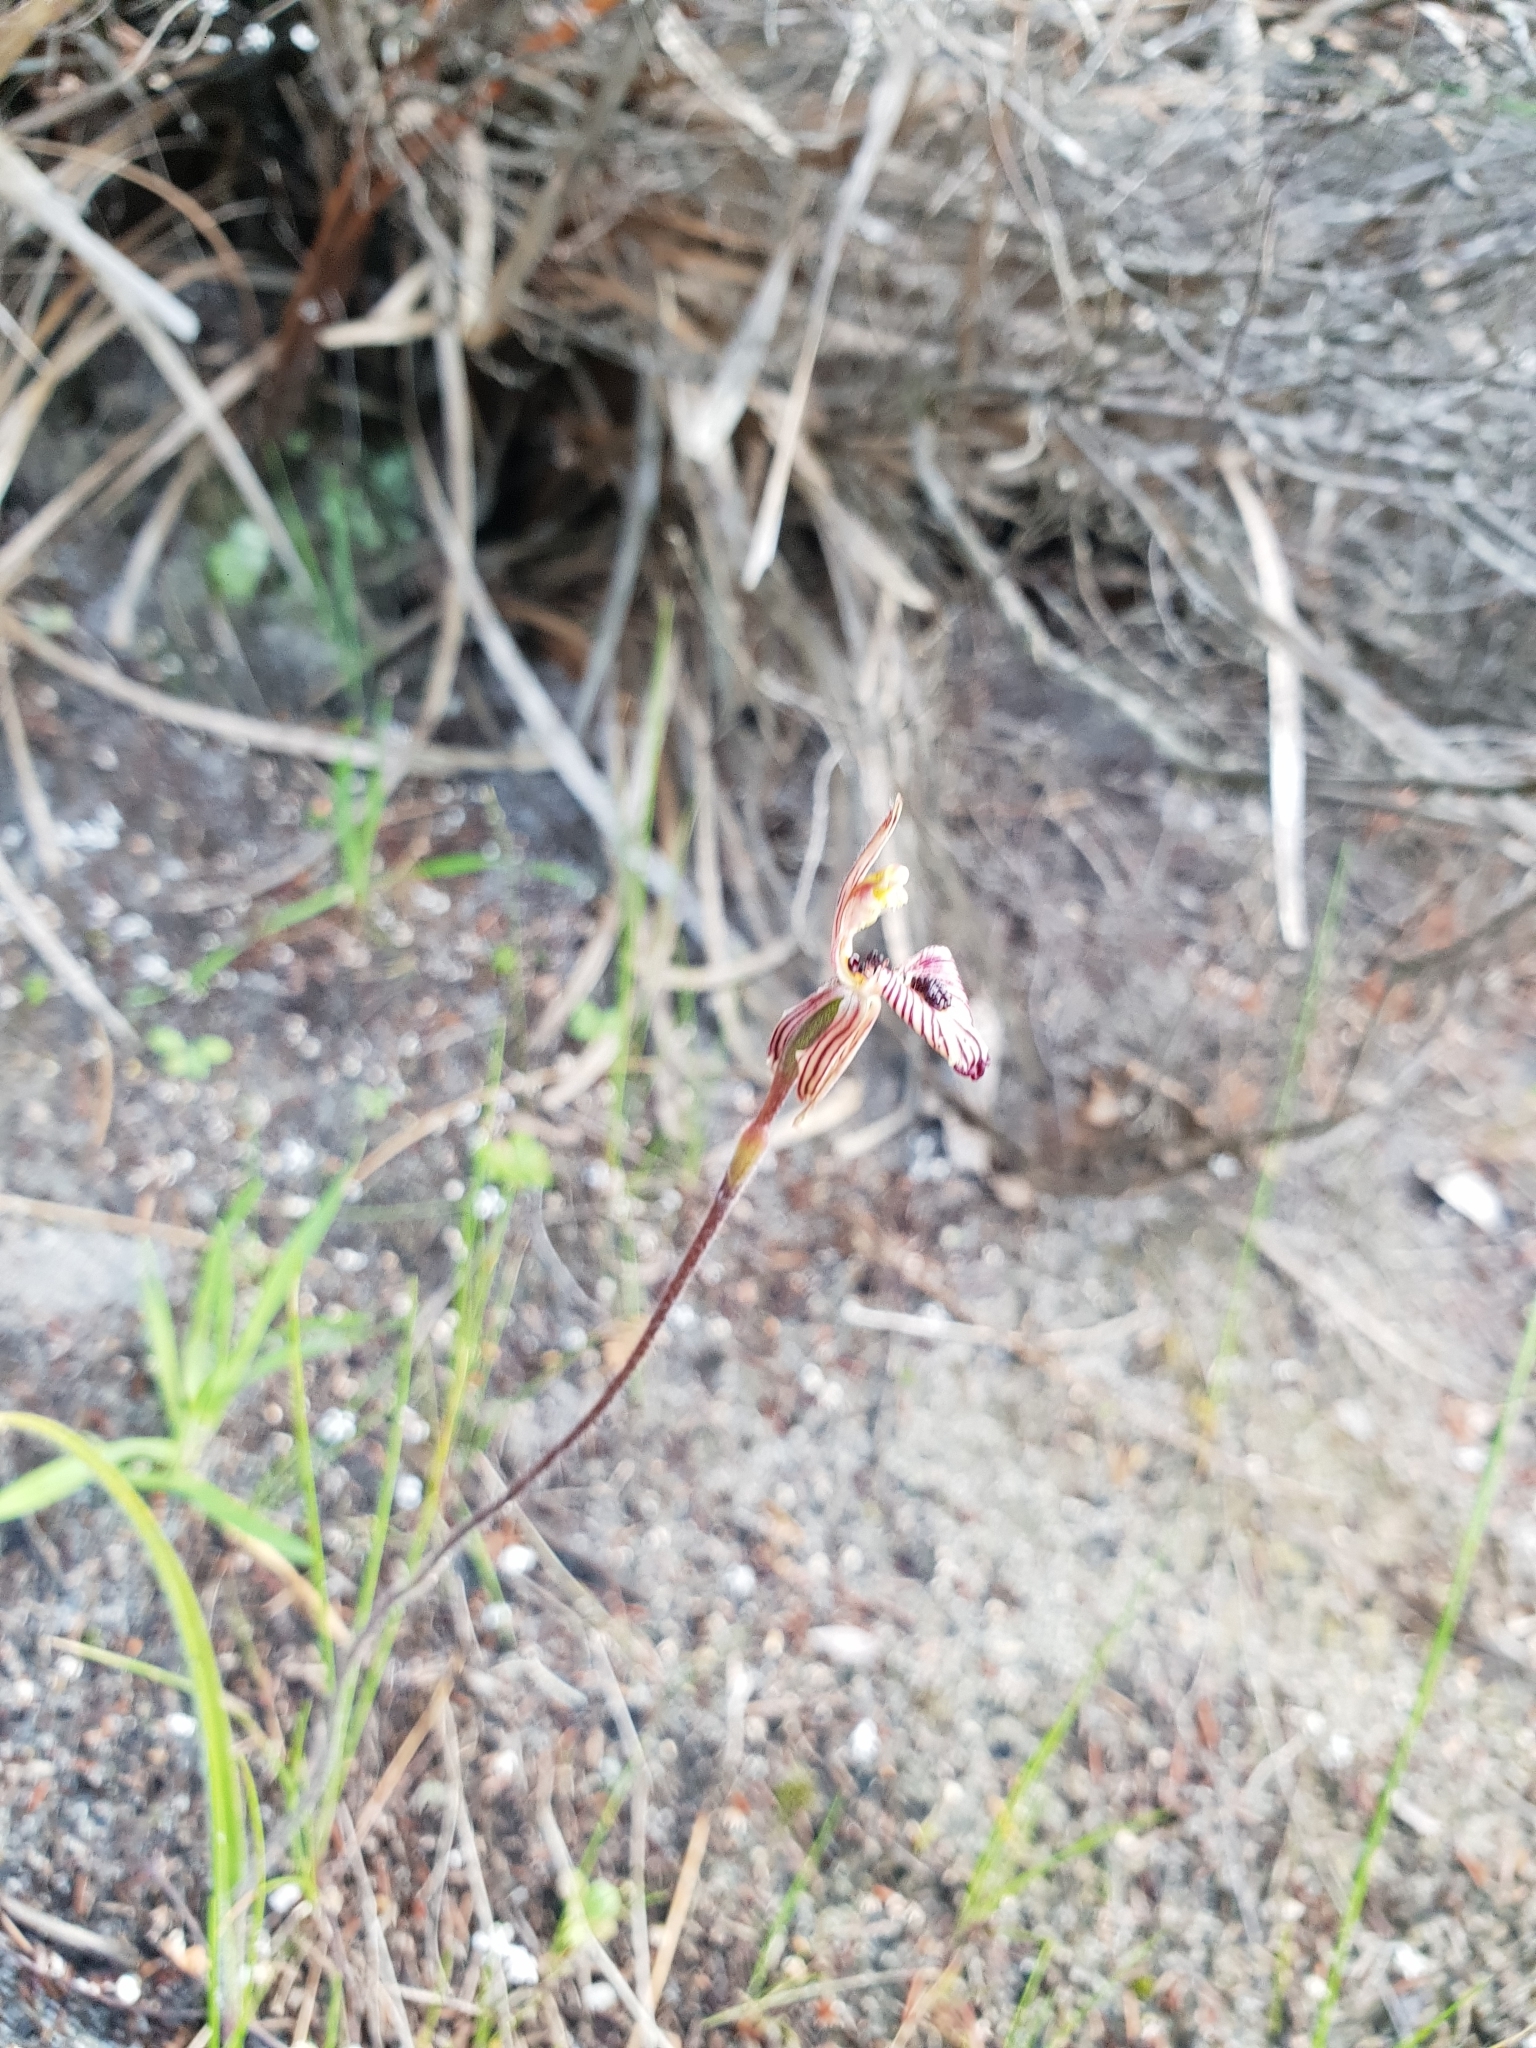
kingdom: Plantae
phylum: Tracheophyta
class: Liliopsida
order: Asparagales
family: Orchidaceae
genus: Caladenia
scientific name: Caladenia cairnsiana
